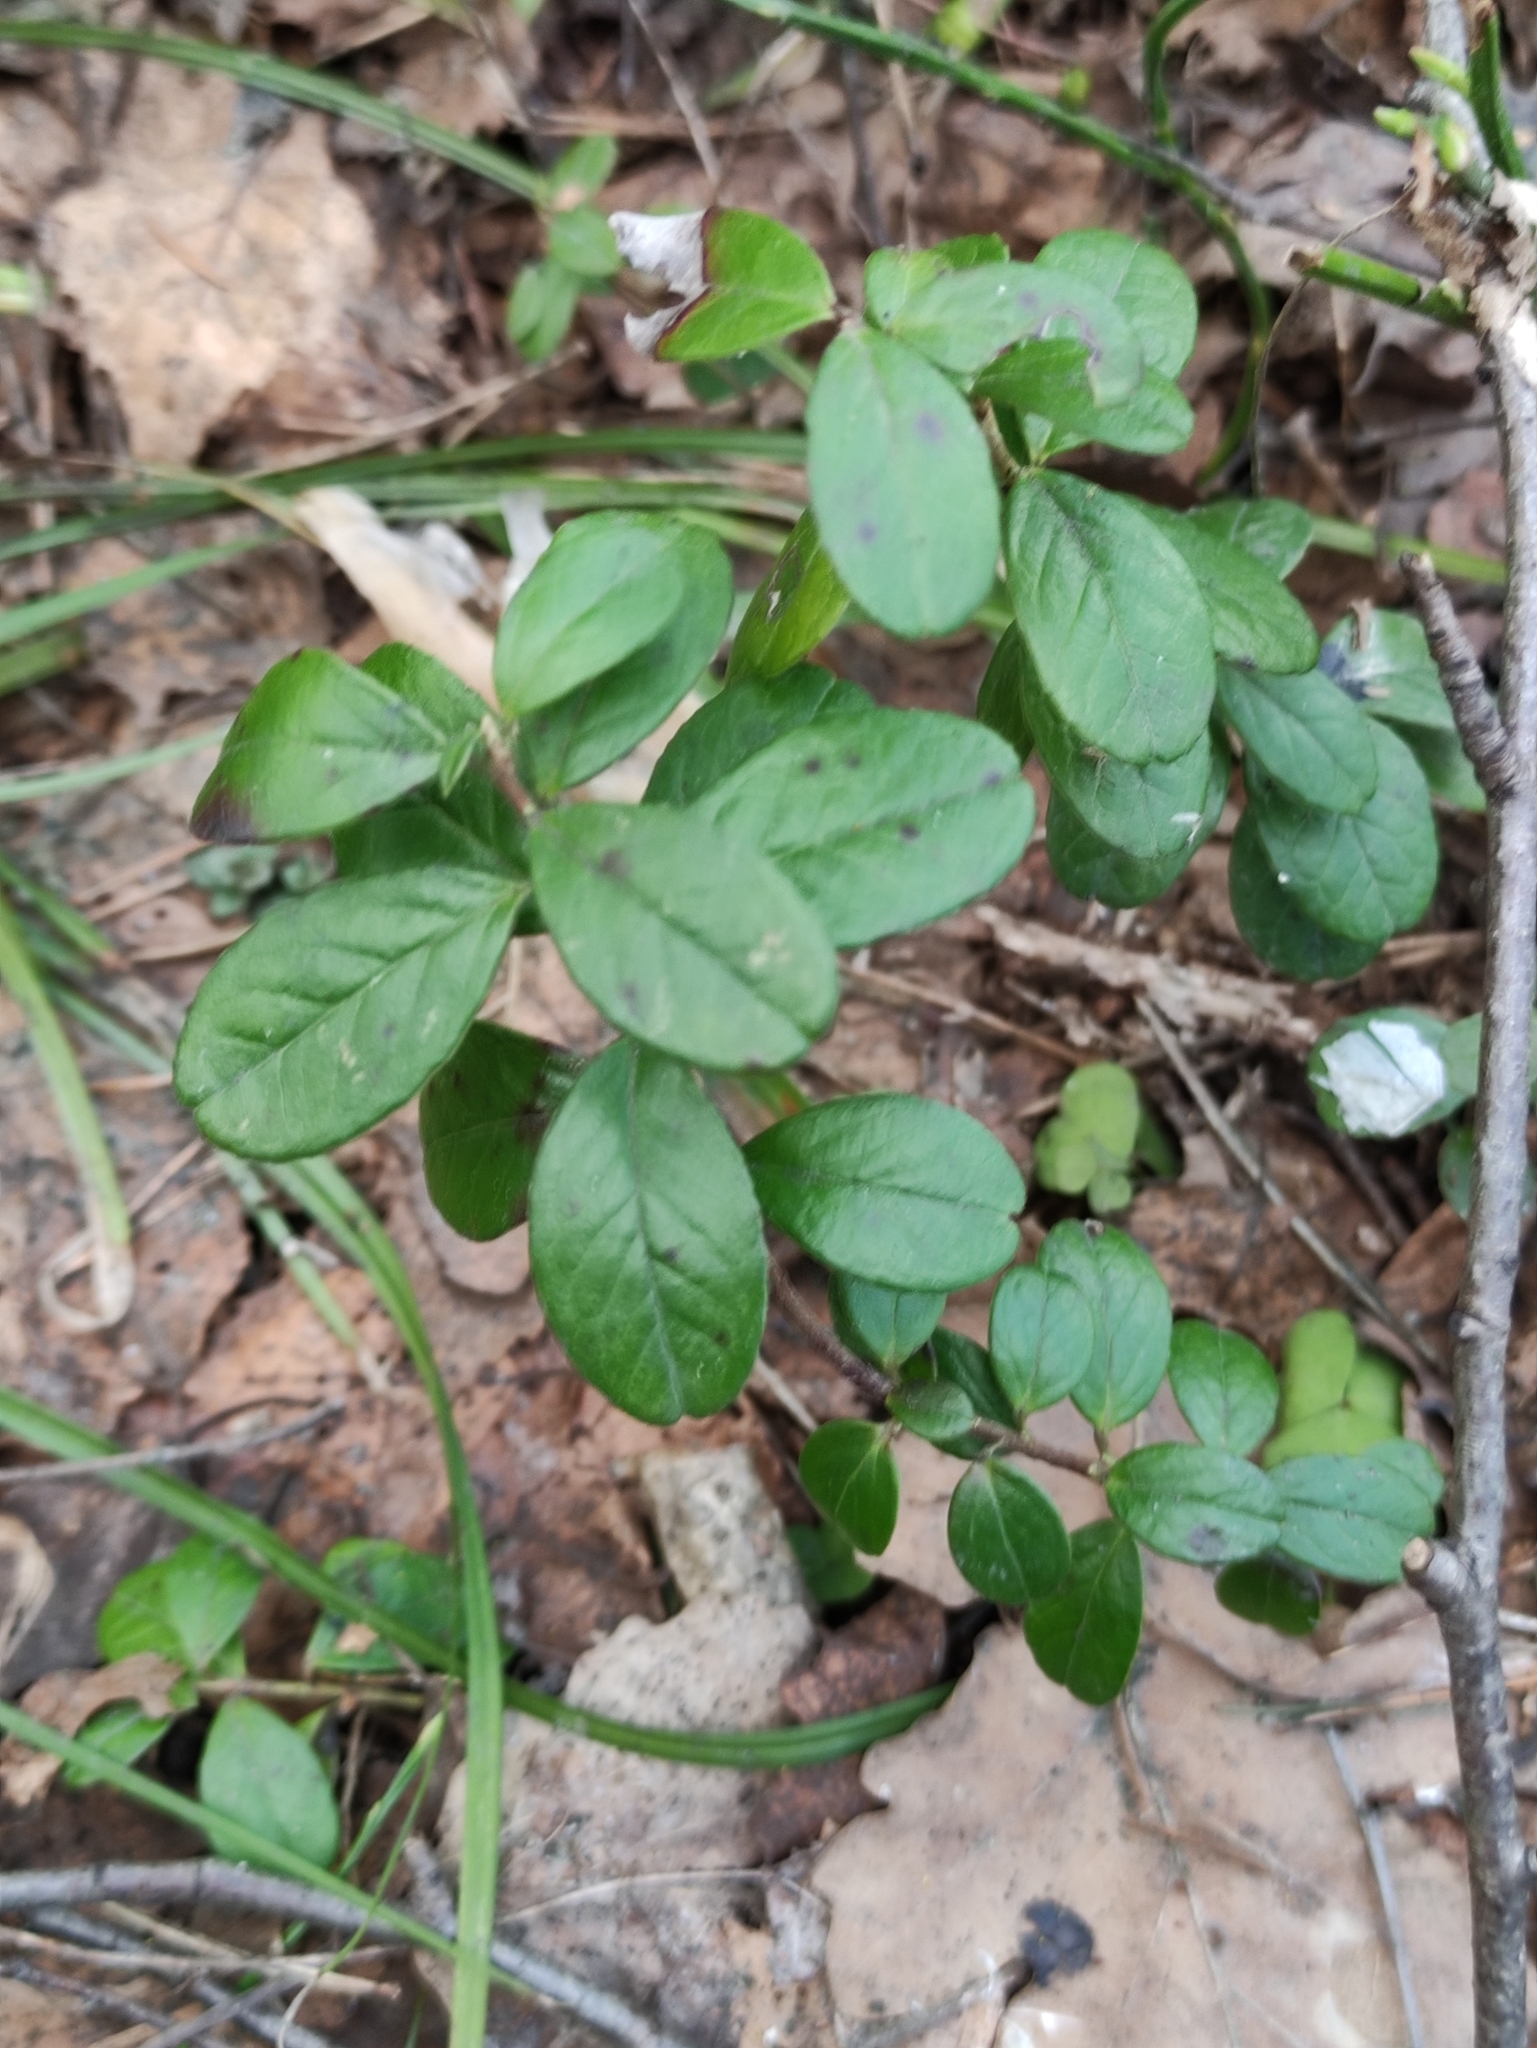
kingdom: Plantae
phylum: Tracheophyta
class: Magnoliopsida
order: Ericales
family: Ericaceae
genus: Vaccinium
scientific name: Vaccinium vitis-idaea
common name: Cowberry
